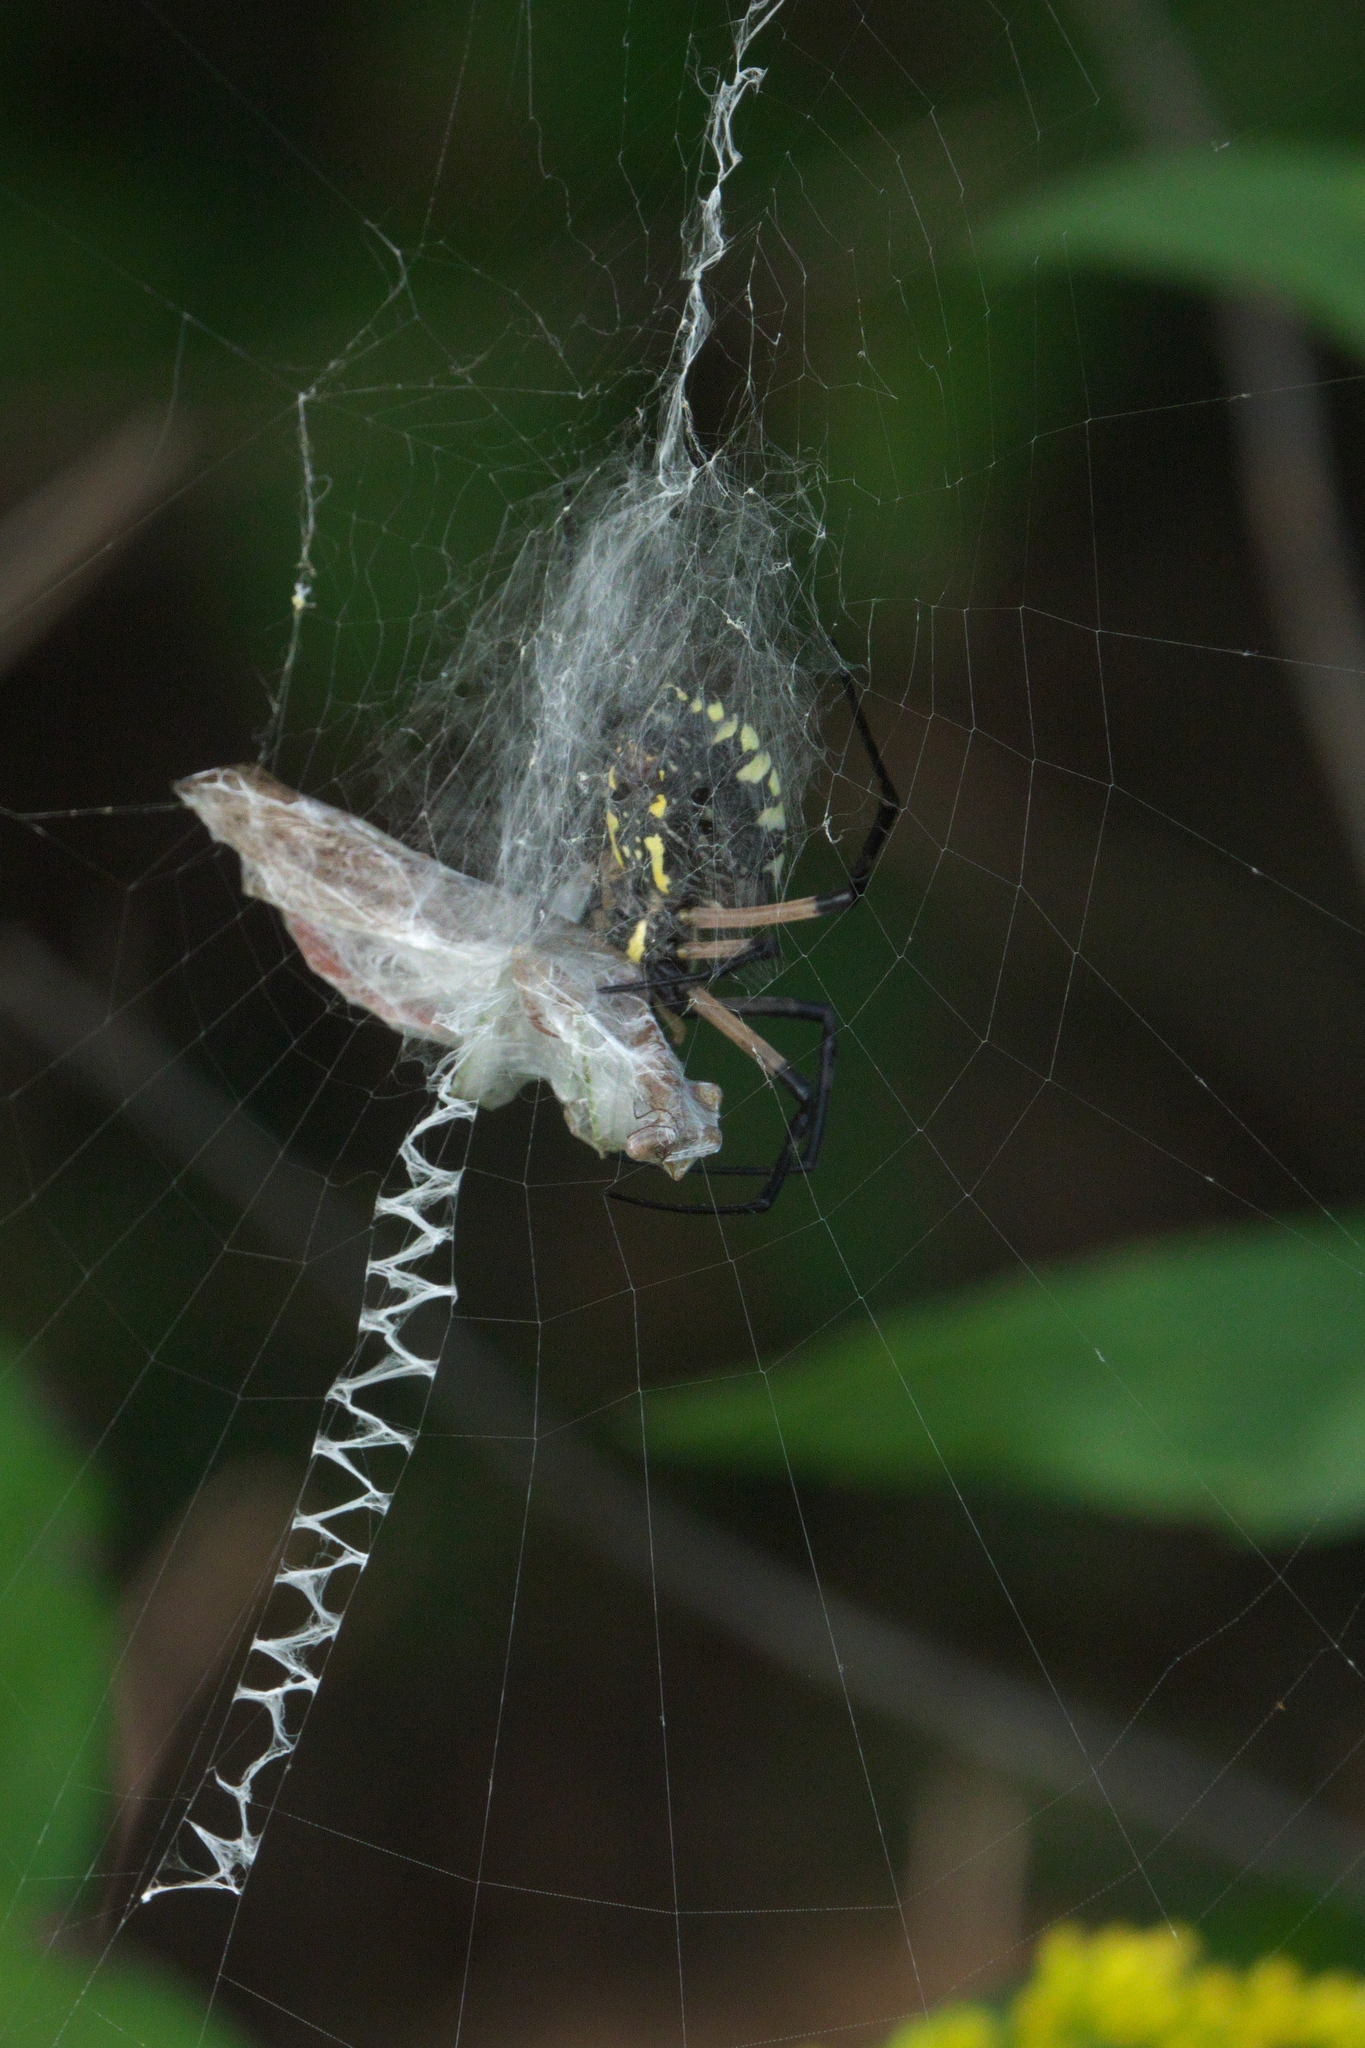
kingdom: Animalia
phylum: Arthropoda
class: Arachnida
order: Araneae
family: Araneidae
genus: Argiope
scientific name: Argiope aurantia
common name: Orb weavers
